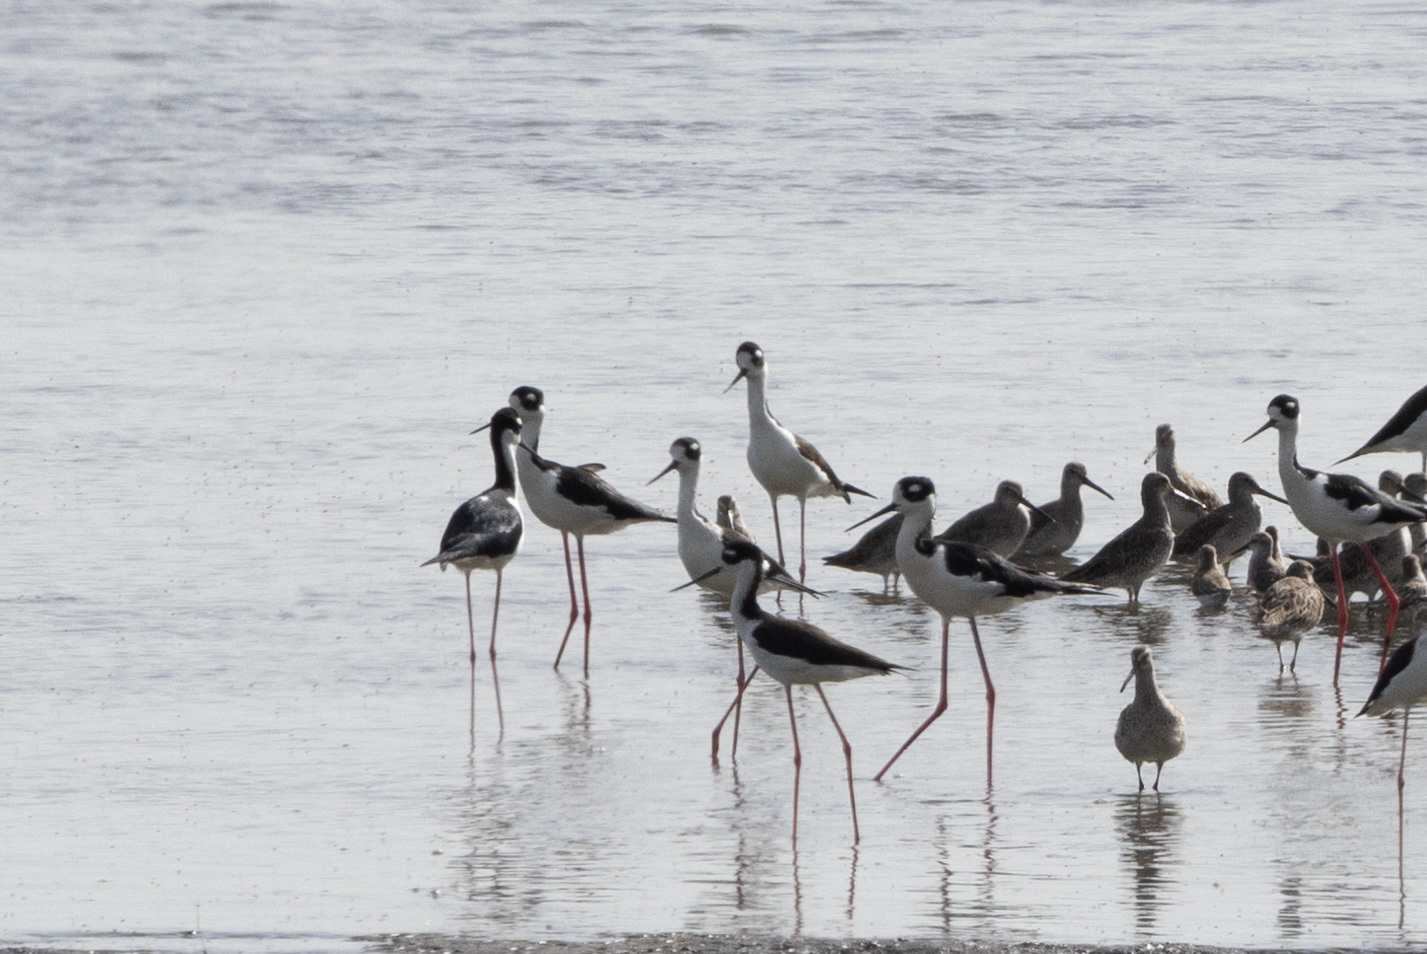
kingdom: Animalia
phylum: Chordata
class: Aves
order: Charadriiformes
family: Recurvirostridae
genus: Himantopus
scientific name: Himantopus mexicanus
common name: Black-necked stilt
